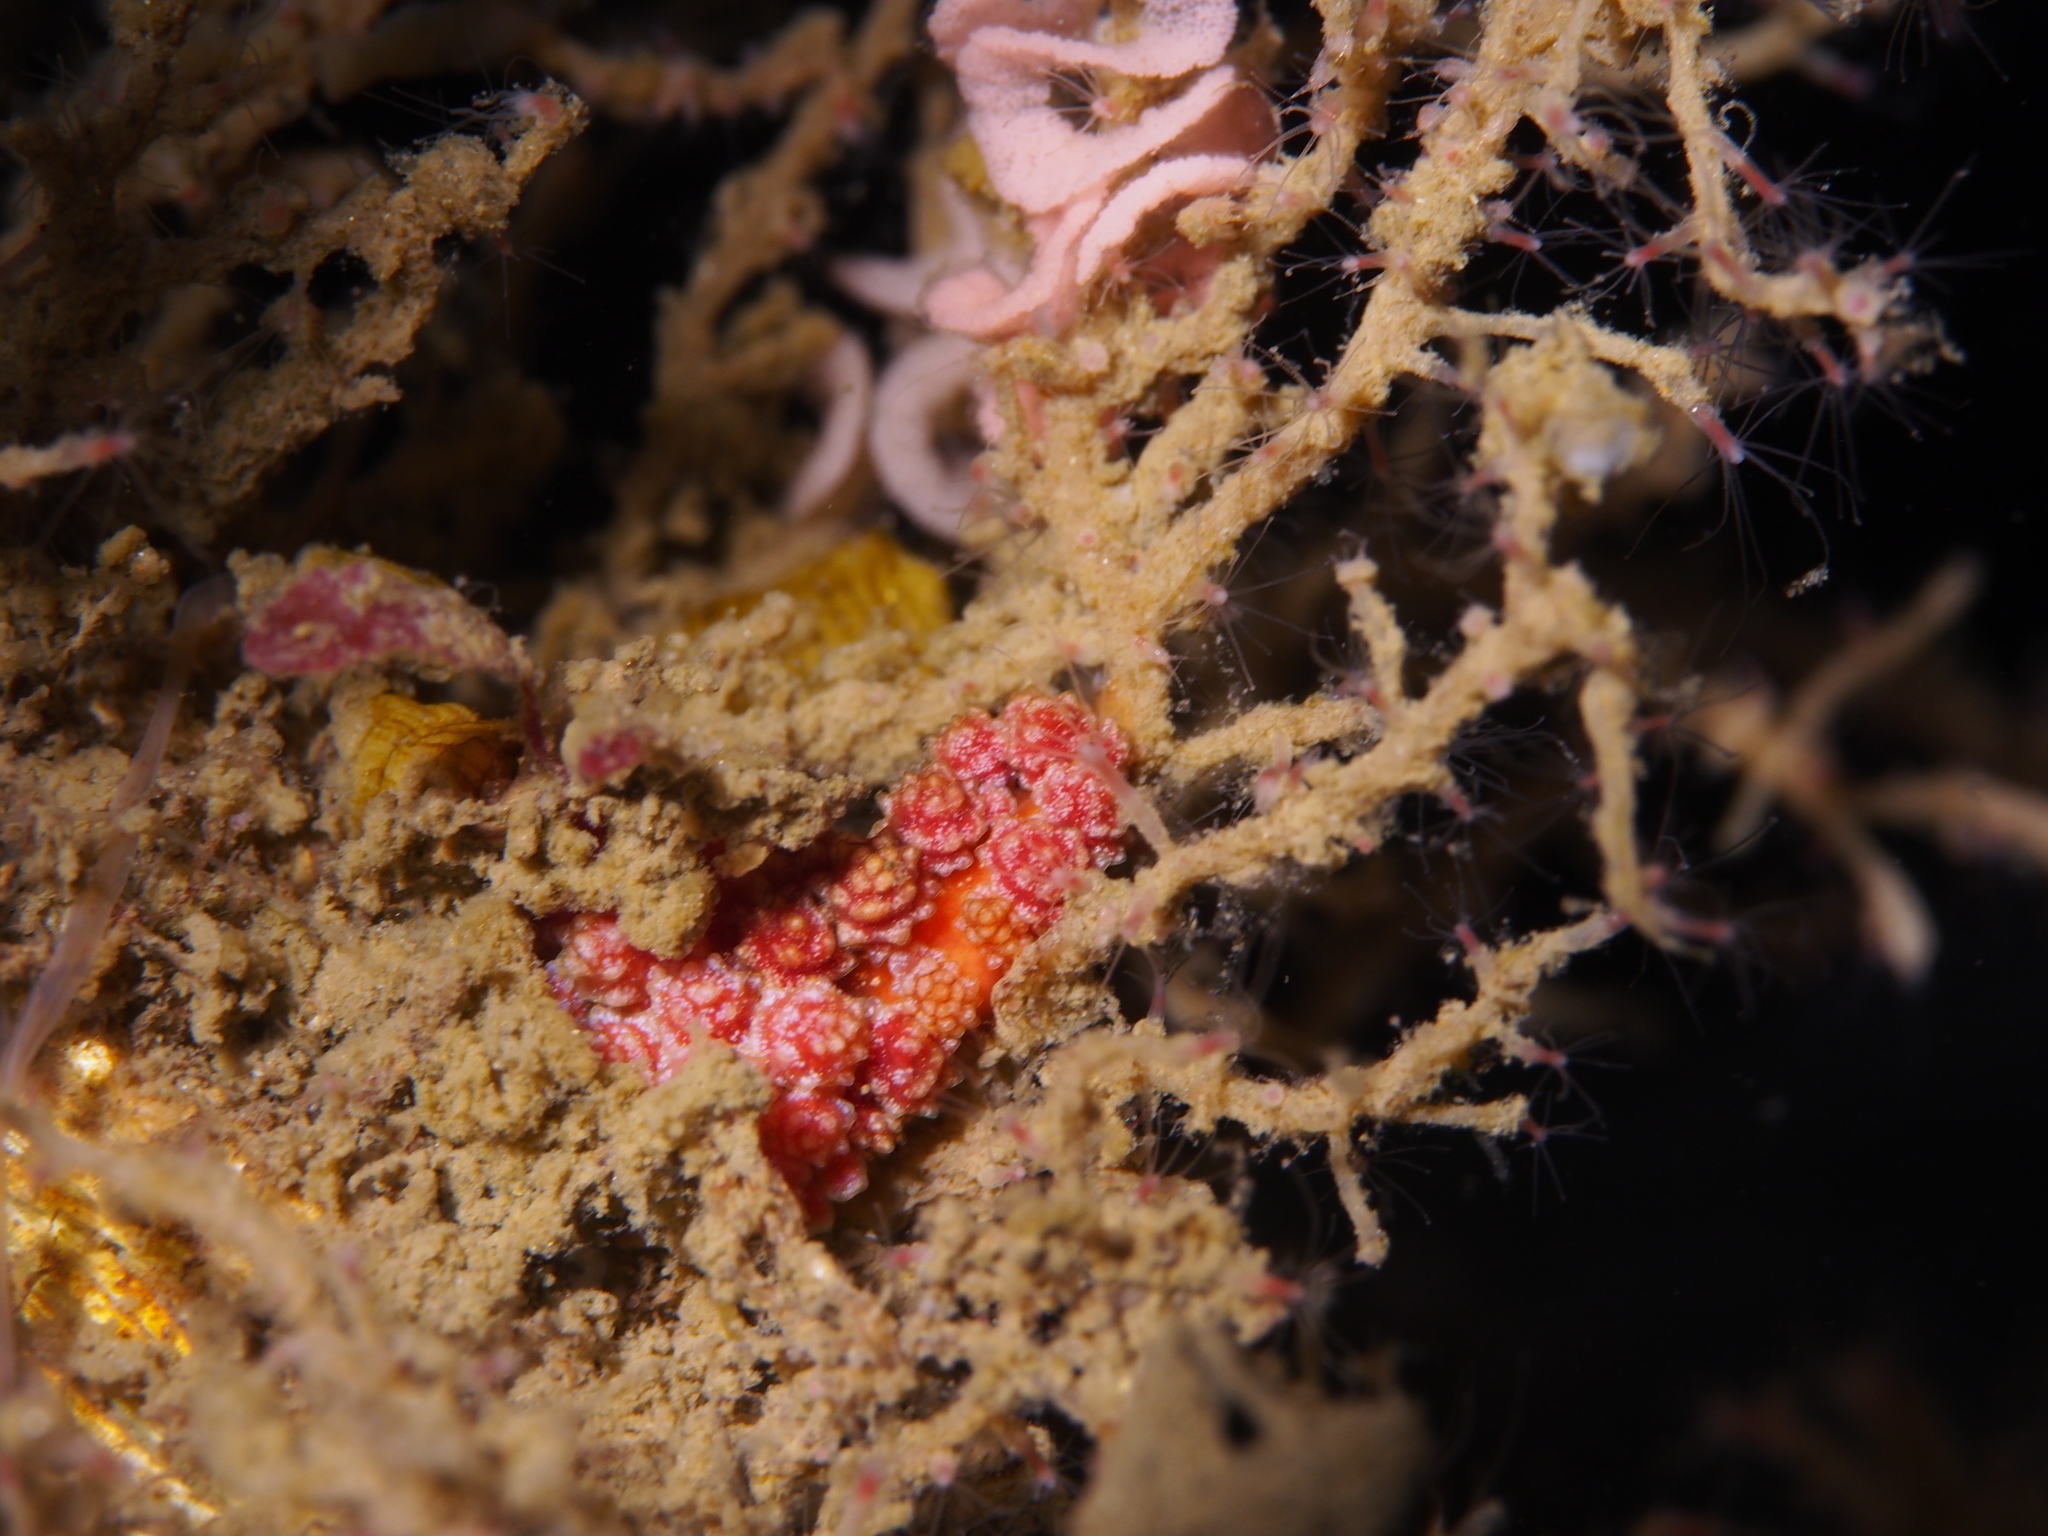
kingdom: Animalia
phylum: Mollusca
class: Gastropoda
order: Nudibranchia
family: Dotidae
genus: Doto
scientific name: Doto fragilis
